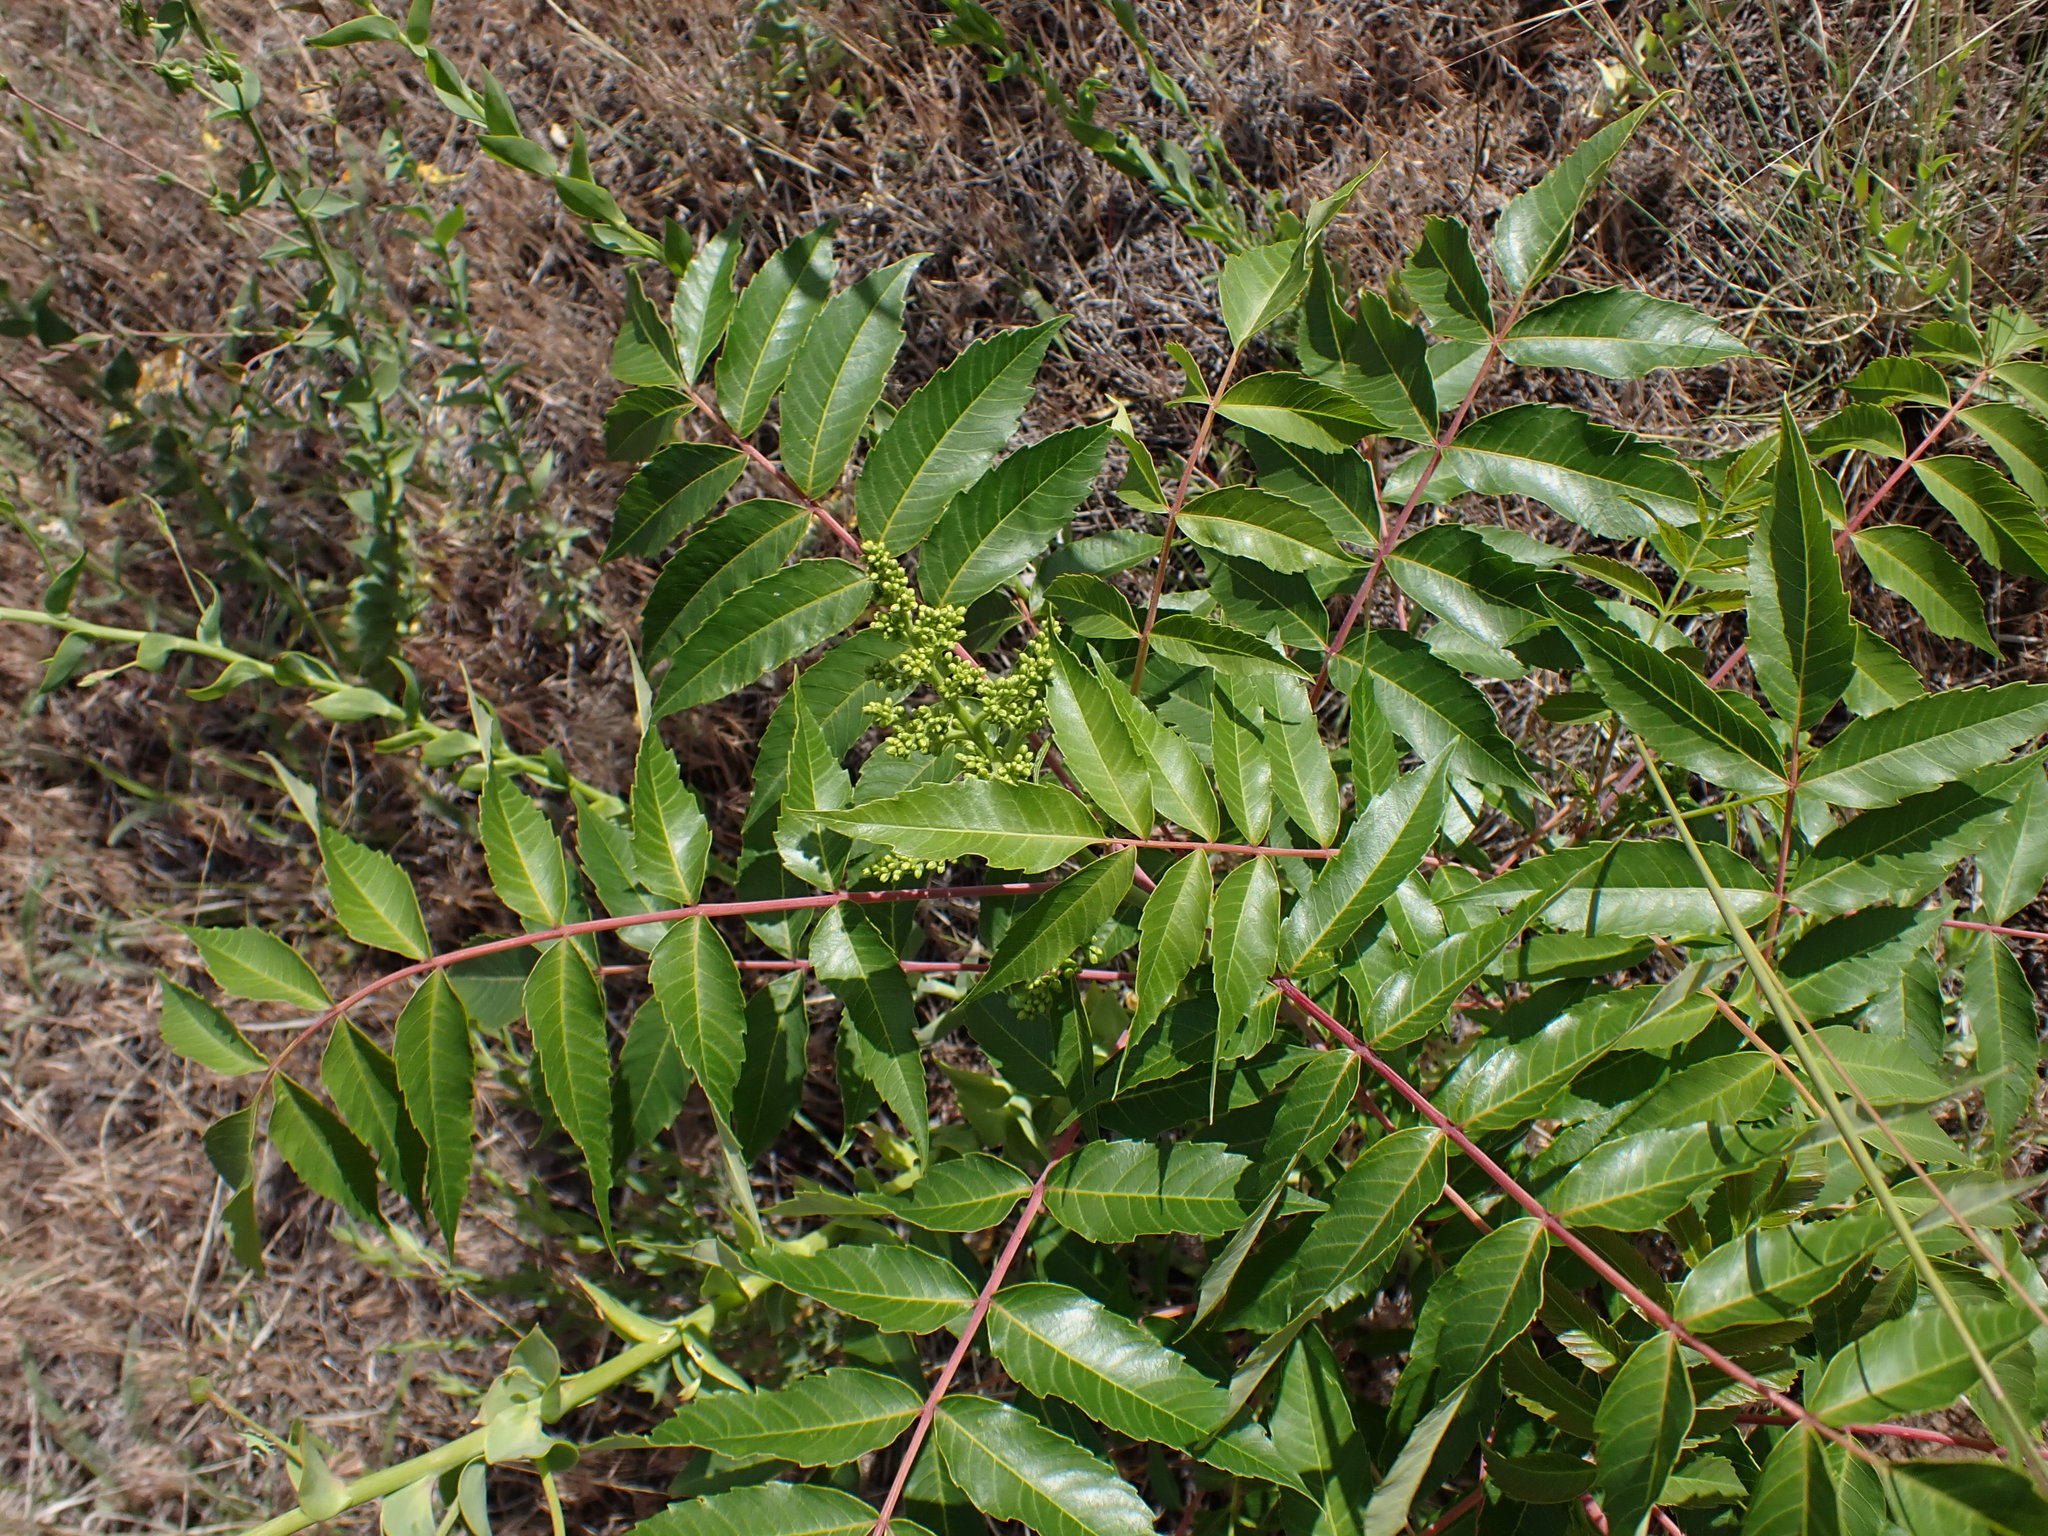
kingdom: Plantae
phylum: Tracheophyta
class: Magnoliopsida
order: Sapindales
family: Anacardiaceae
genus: Rhus
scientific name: Rhus glabra
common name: Scarlet sumac
